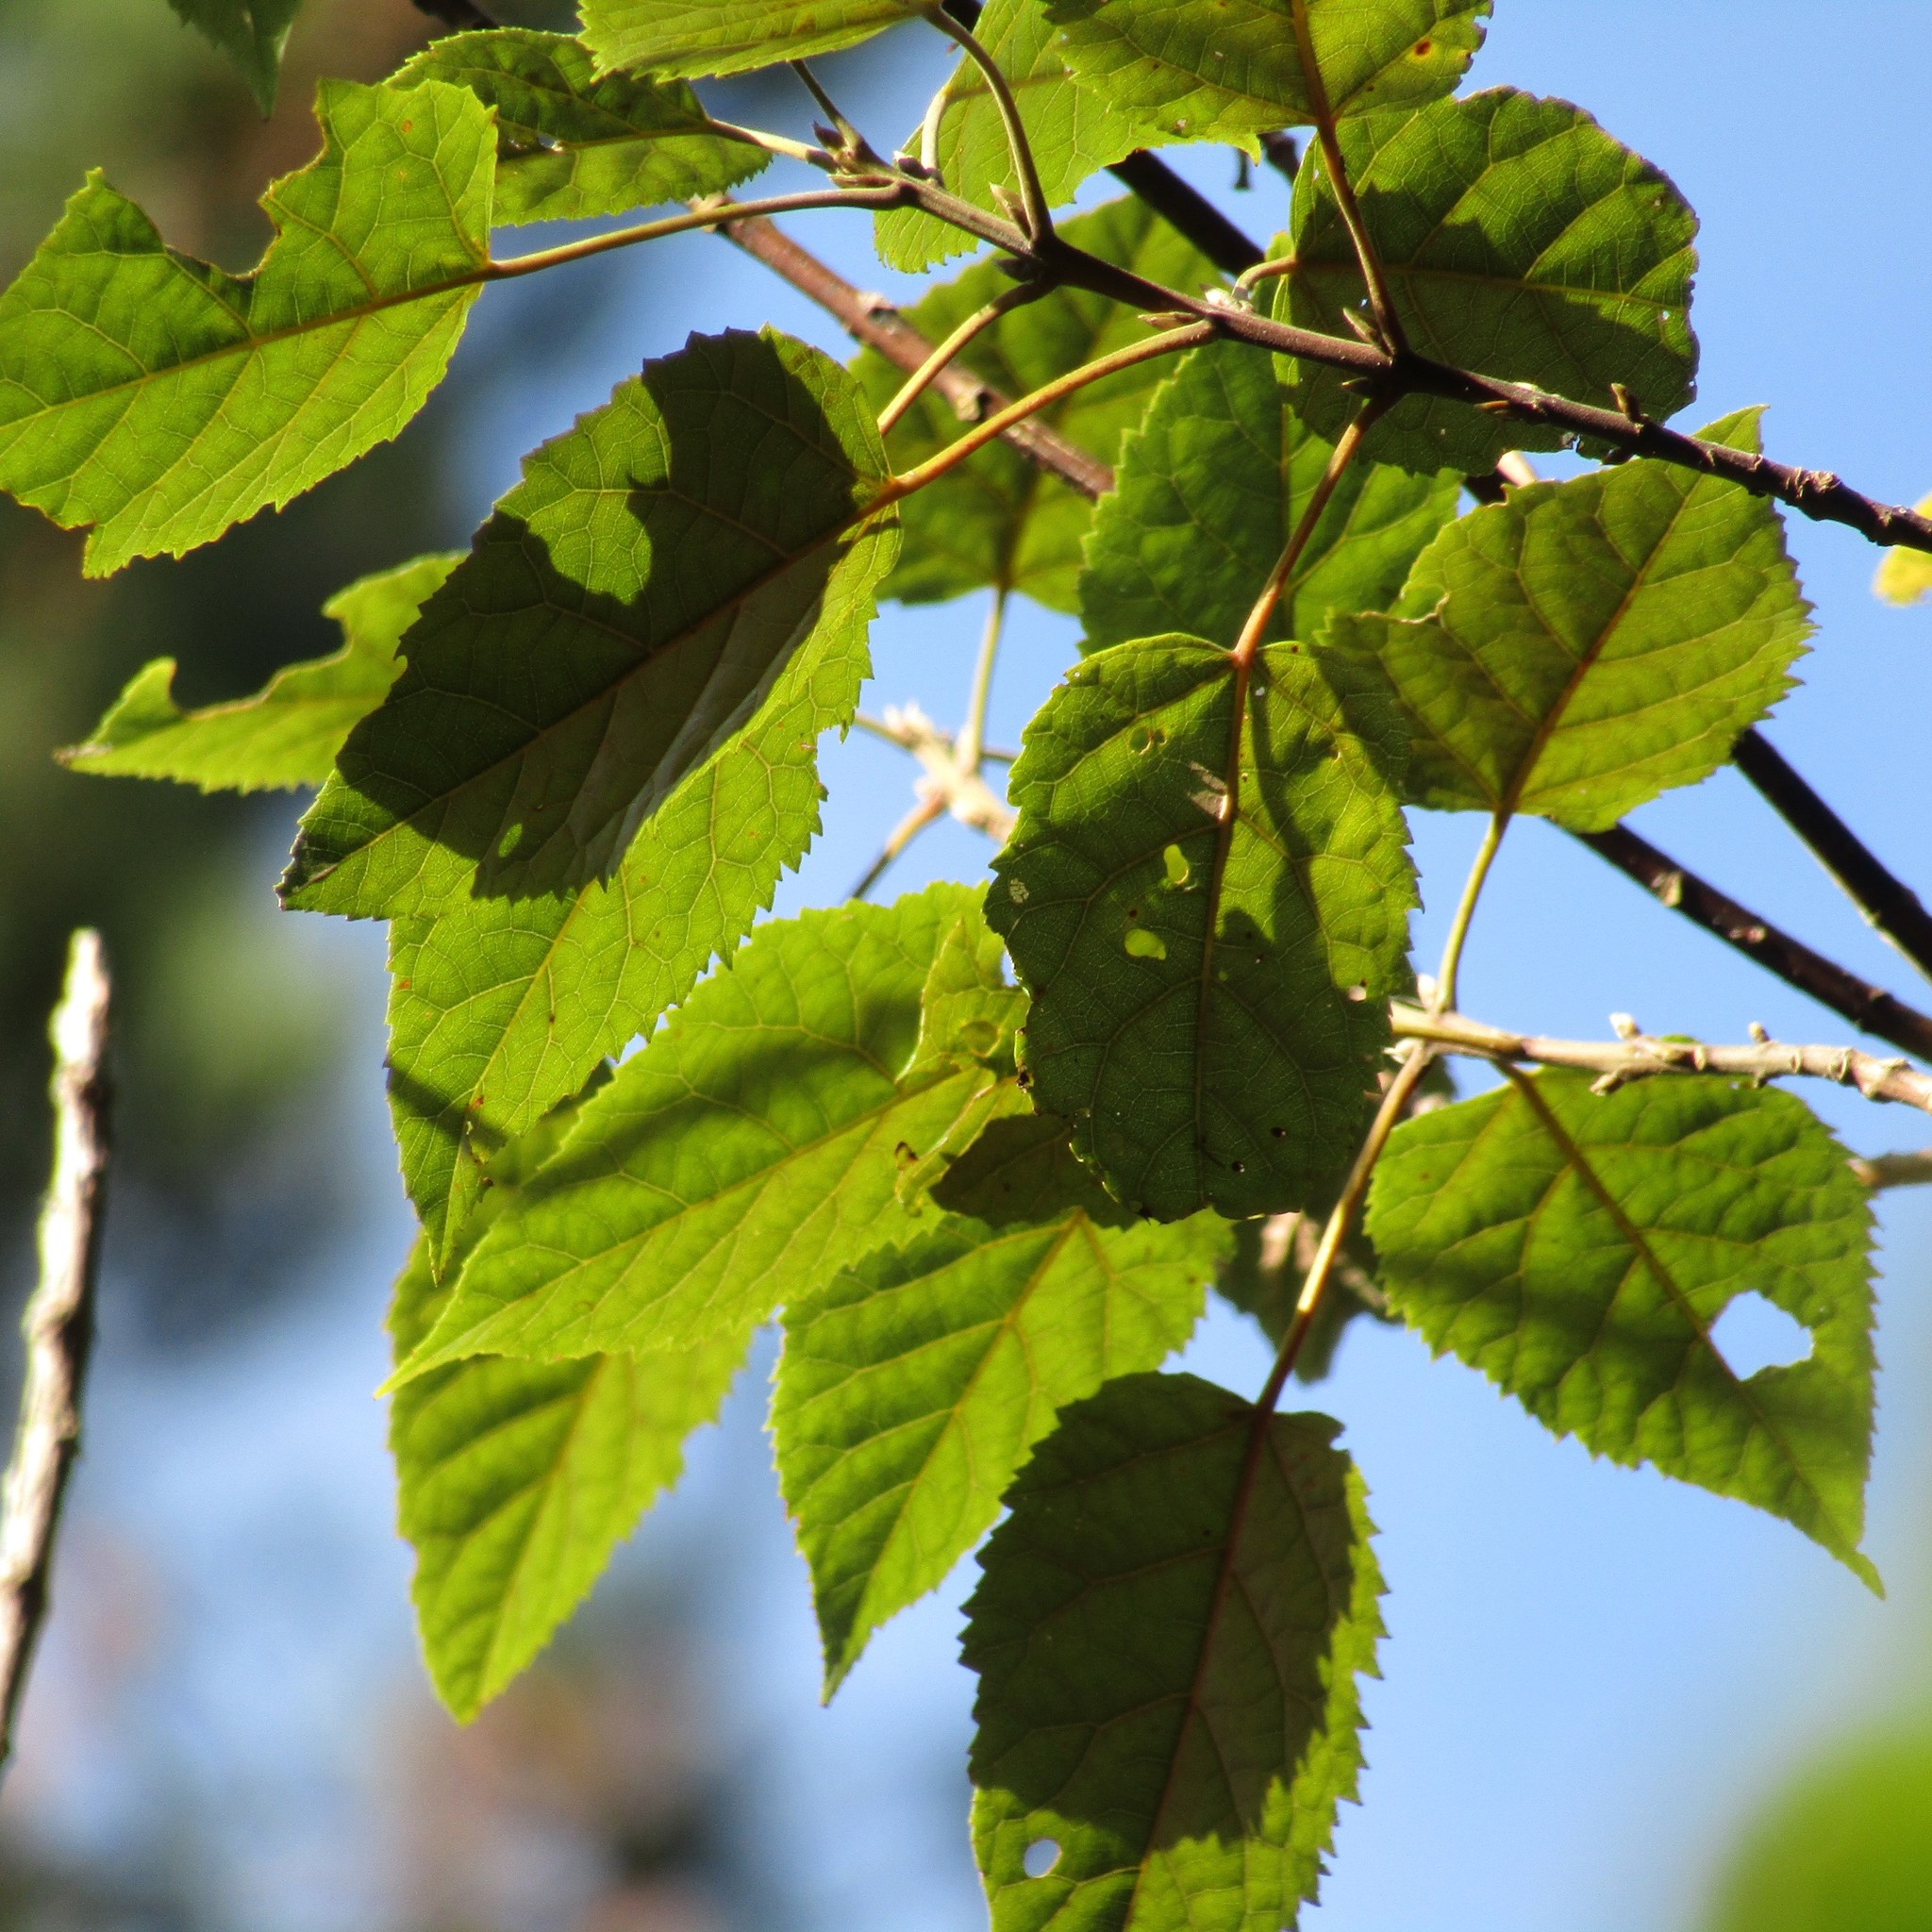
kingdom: Plantae
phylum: Tracheophyta
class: Magnoliopsida
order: Oxalidales
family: Elaeocarpaceae
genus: Aristotelia
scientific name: Aristotelia serrata
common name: New zealand wineberry
